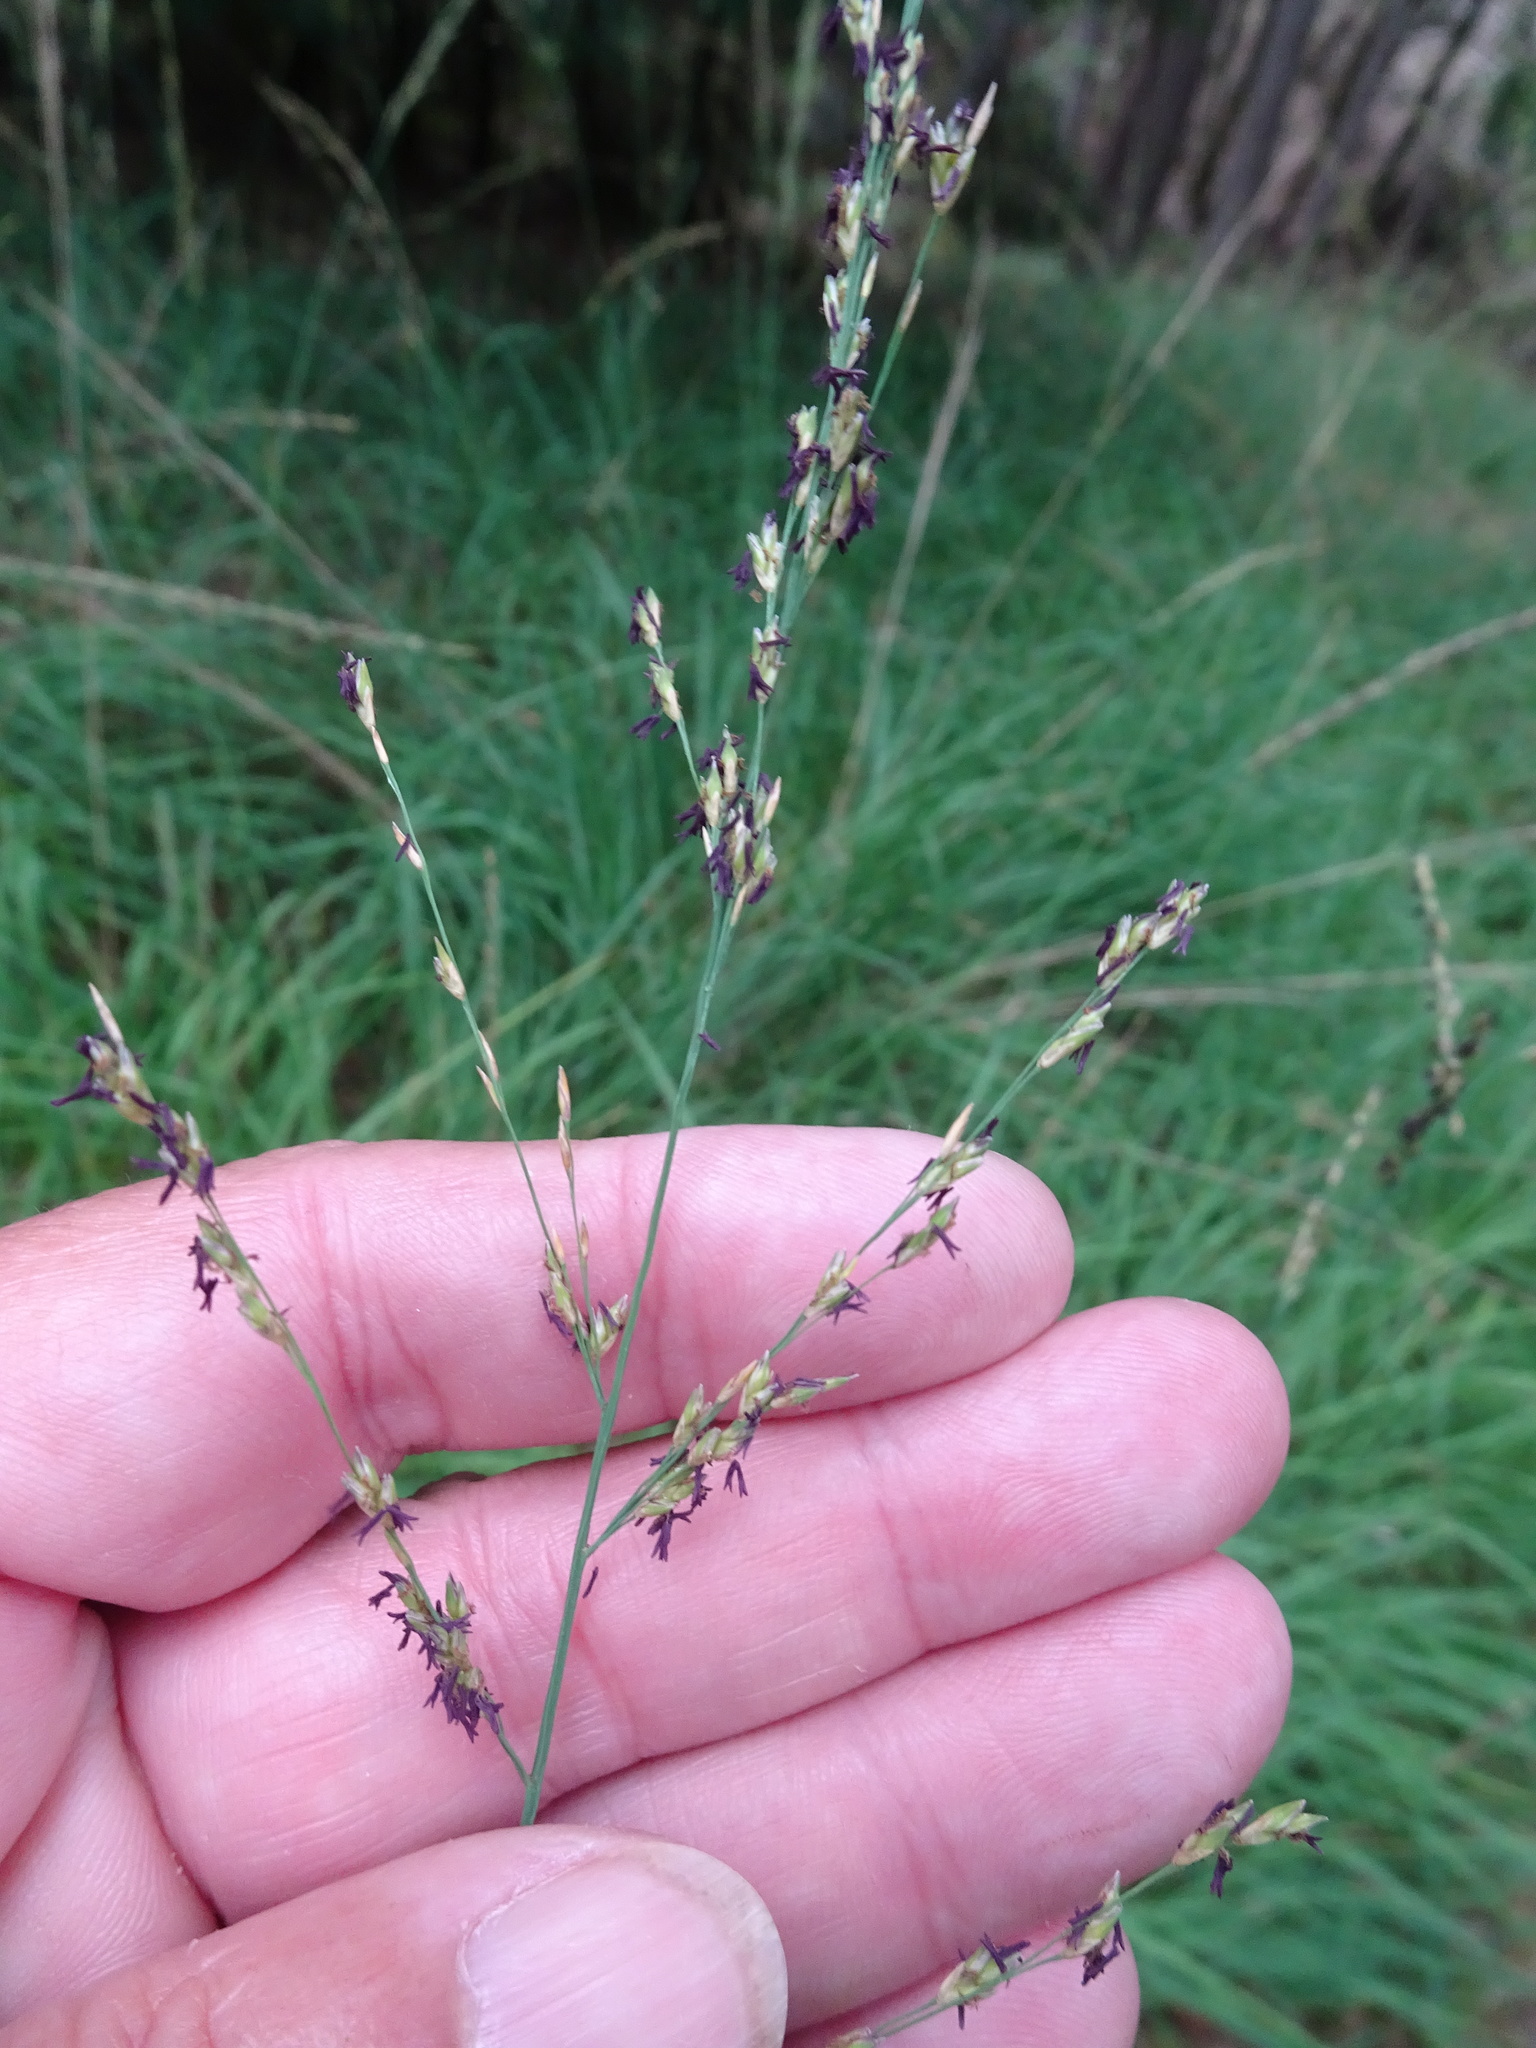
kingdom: Plantae
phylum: Tracheophyta
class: Liliopsida
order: Poales
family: Poaceae
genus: Molinia
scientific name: Molinia caerulea
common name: Purple moor-grass
